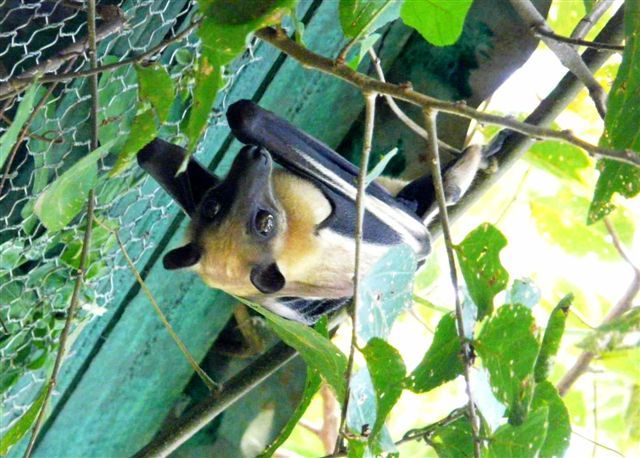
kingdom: Animalia
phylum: Chordata
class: Mammalia
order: Chiroptera
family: Pteropodidae
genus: Eidolon
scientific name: Eidolon helvum
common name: Straw-colored fruit bat
